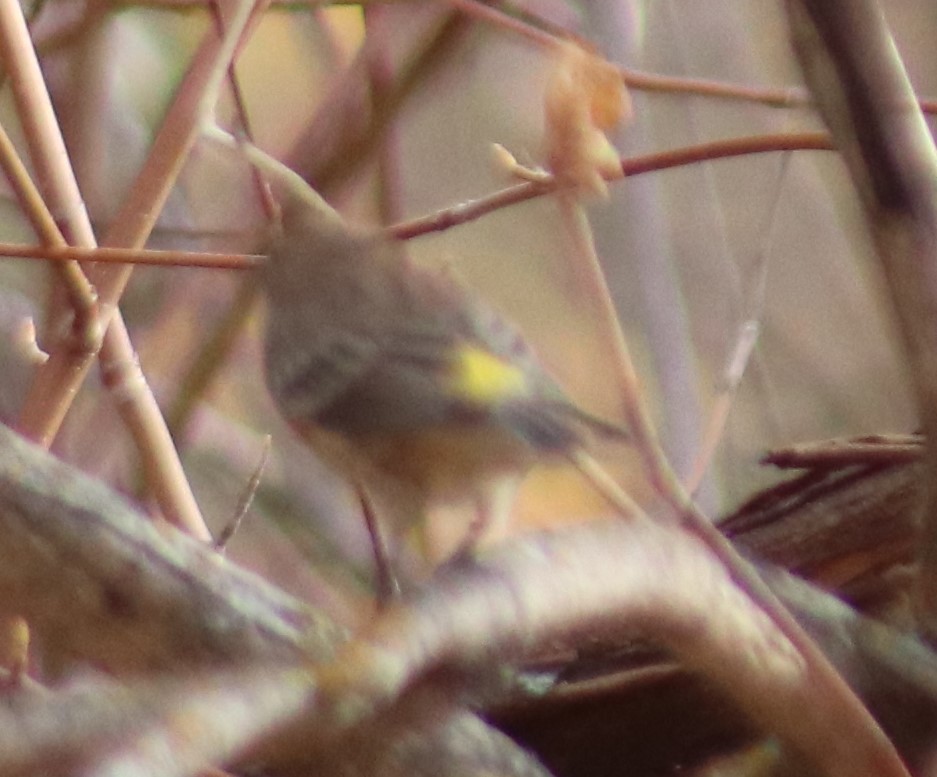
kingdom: Animalia
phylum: Chordata
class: Aves
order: Passeriformes
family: Parulidae
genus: Setophaga
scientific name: Setophaga coronata
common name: Myrtle warbler
